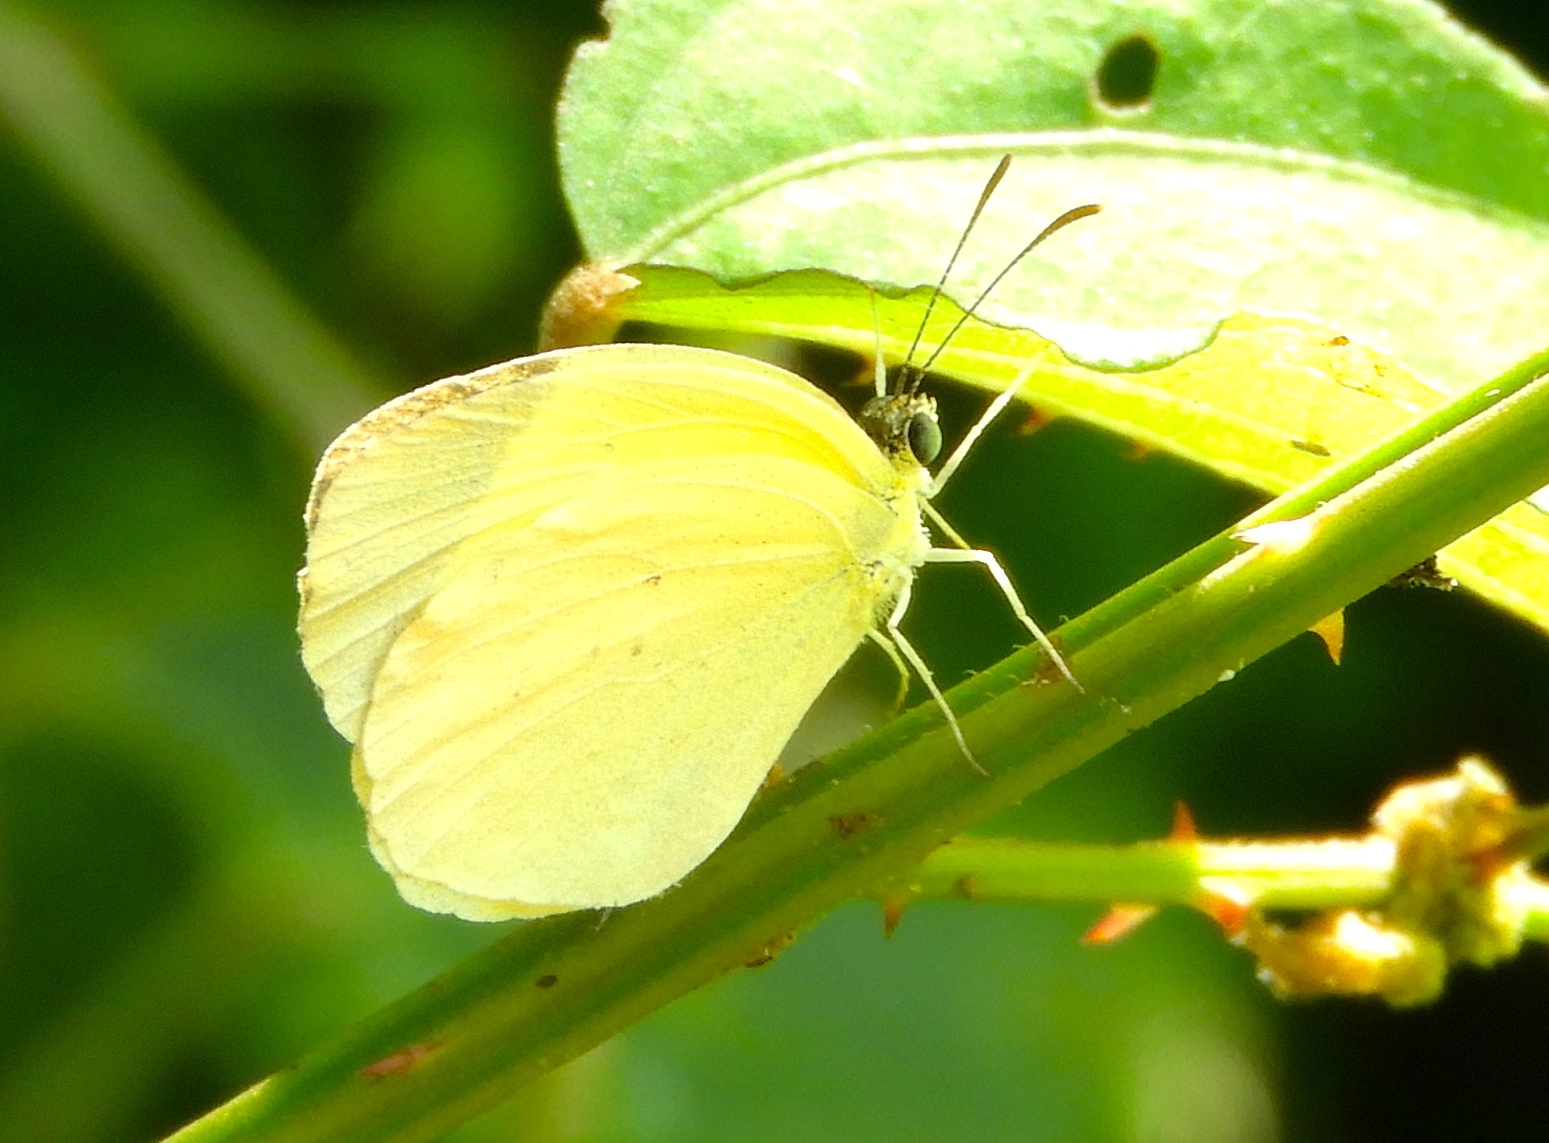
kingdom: Animalia
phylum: Arthropoda
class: Insecta
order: Lepidoptera
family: Pieridae
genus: Pyrisitia
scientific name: Pyrisitia nise
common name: Mimosa yellow
